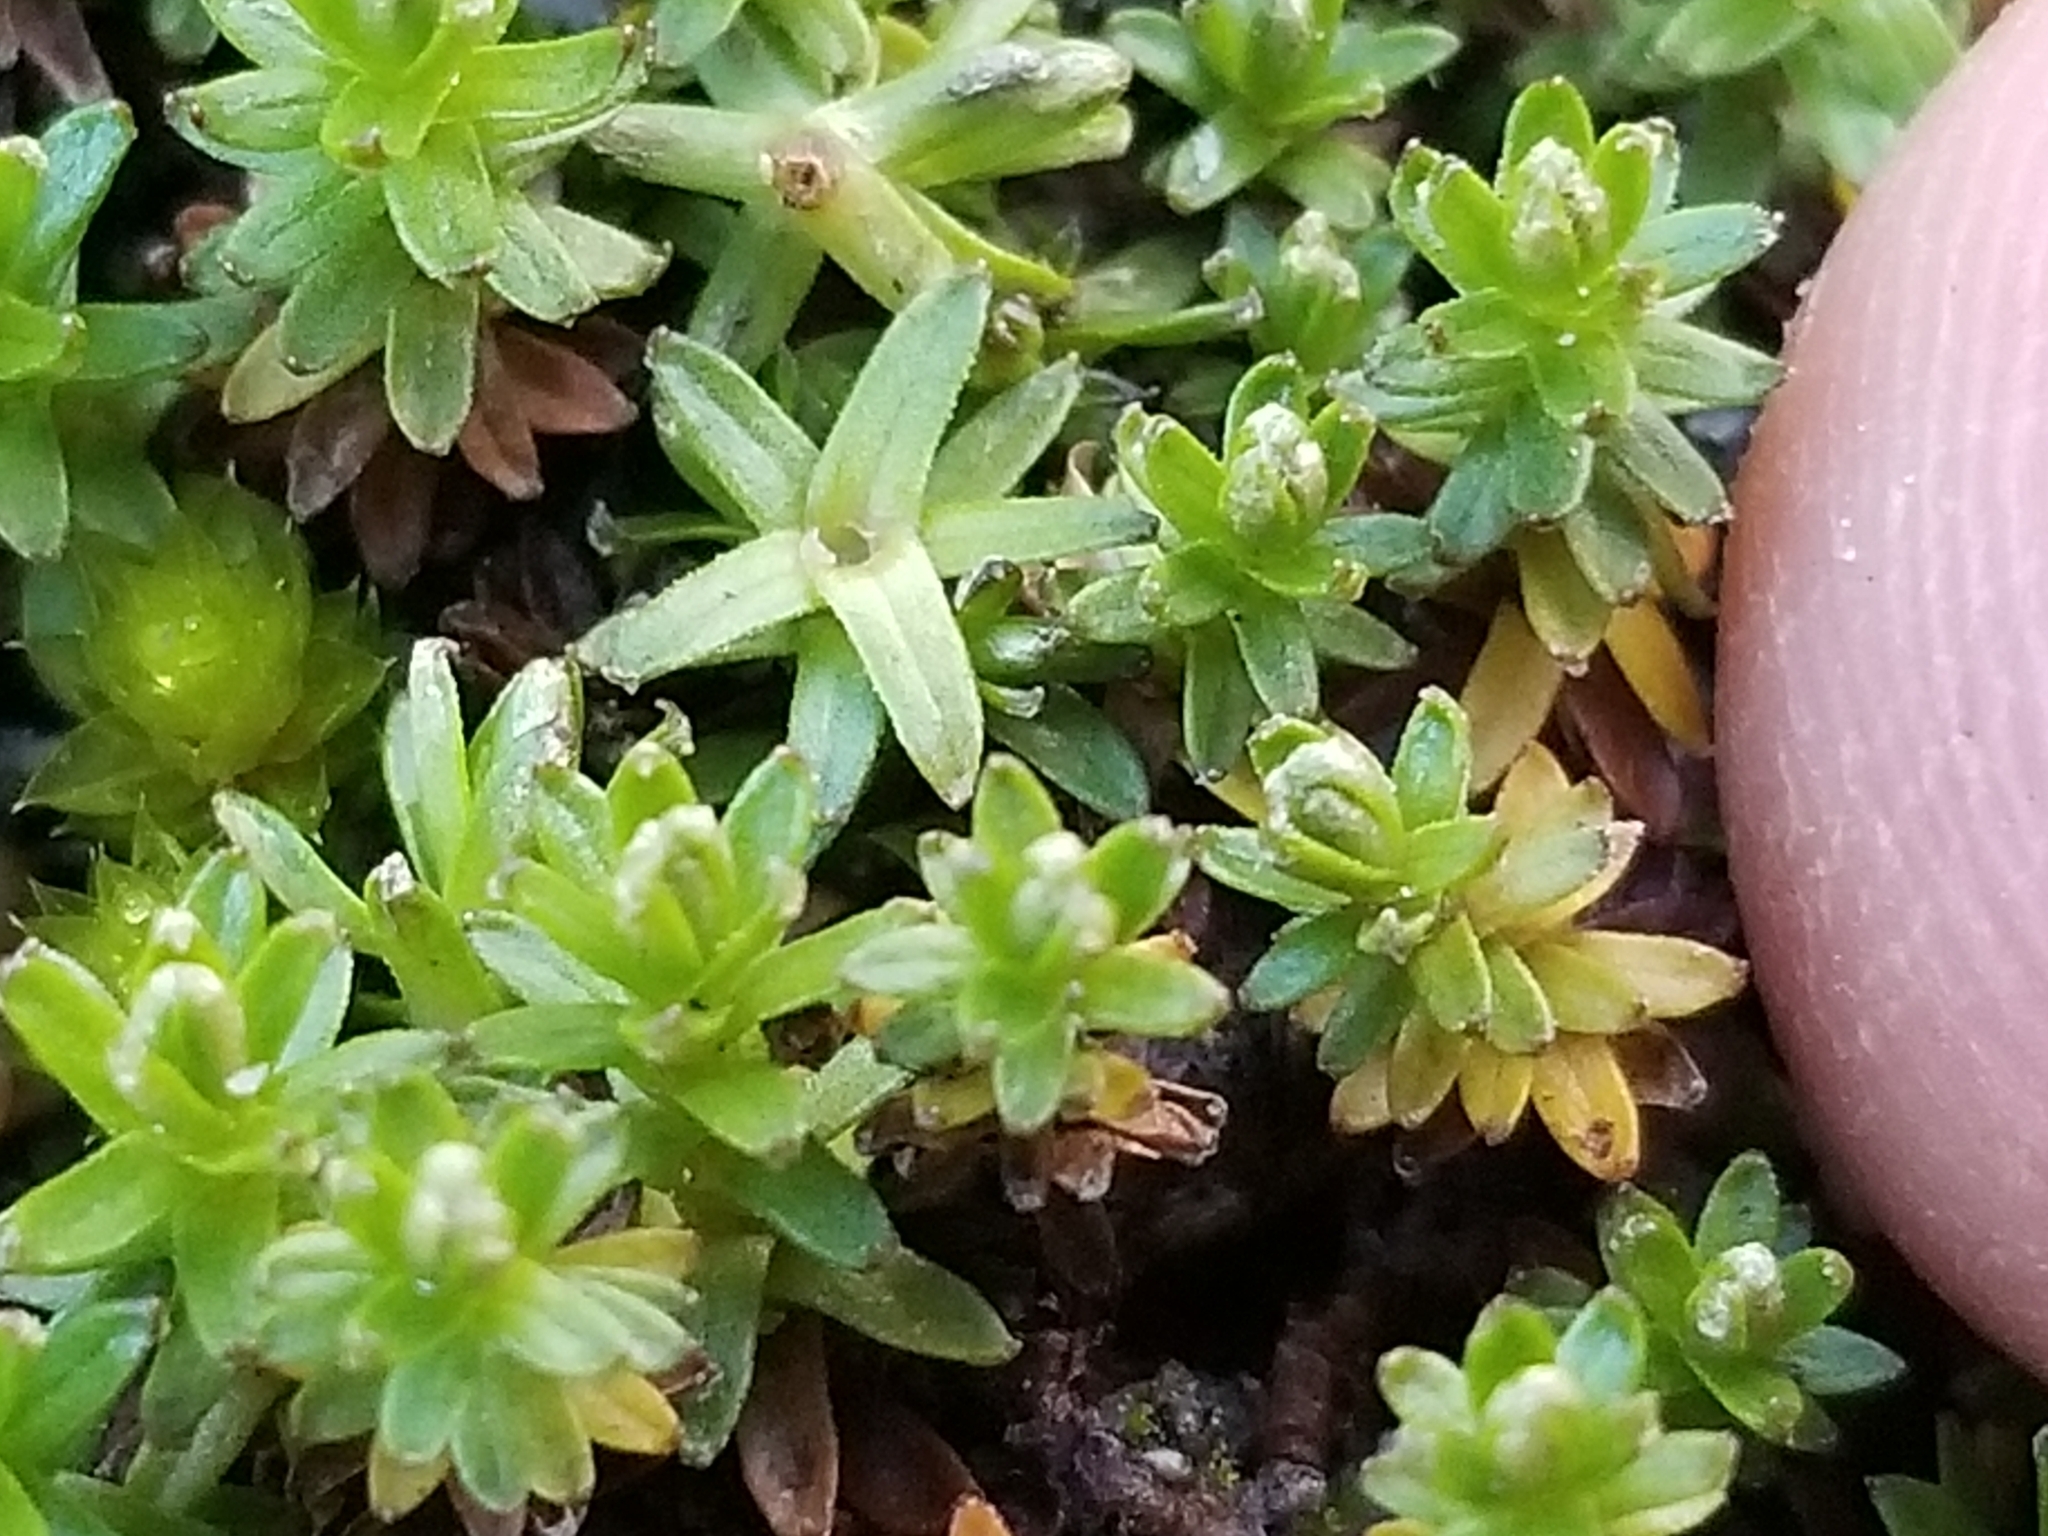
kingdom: Plantae
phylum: Tracheophyta
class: Magnoliopsida
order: Asterales
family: Asteraceae
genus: Raoulia
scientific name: Raoulia glabra
